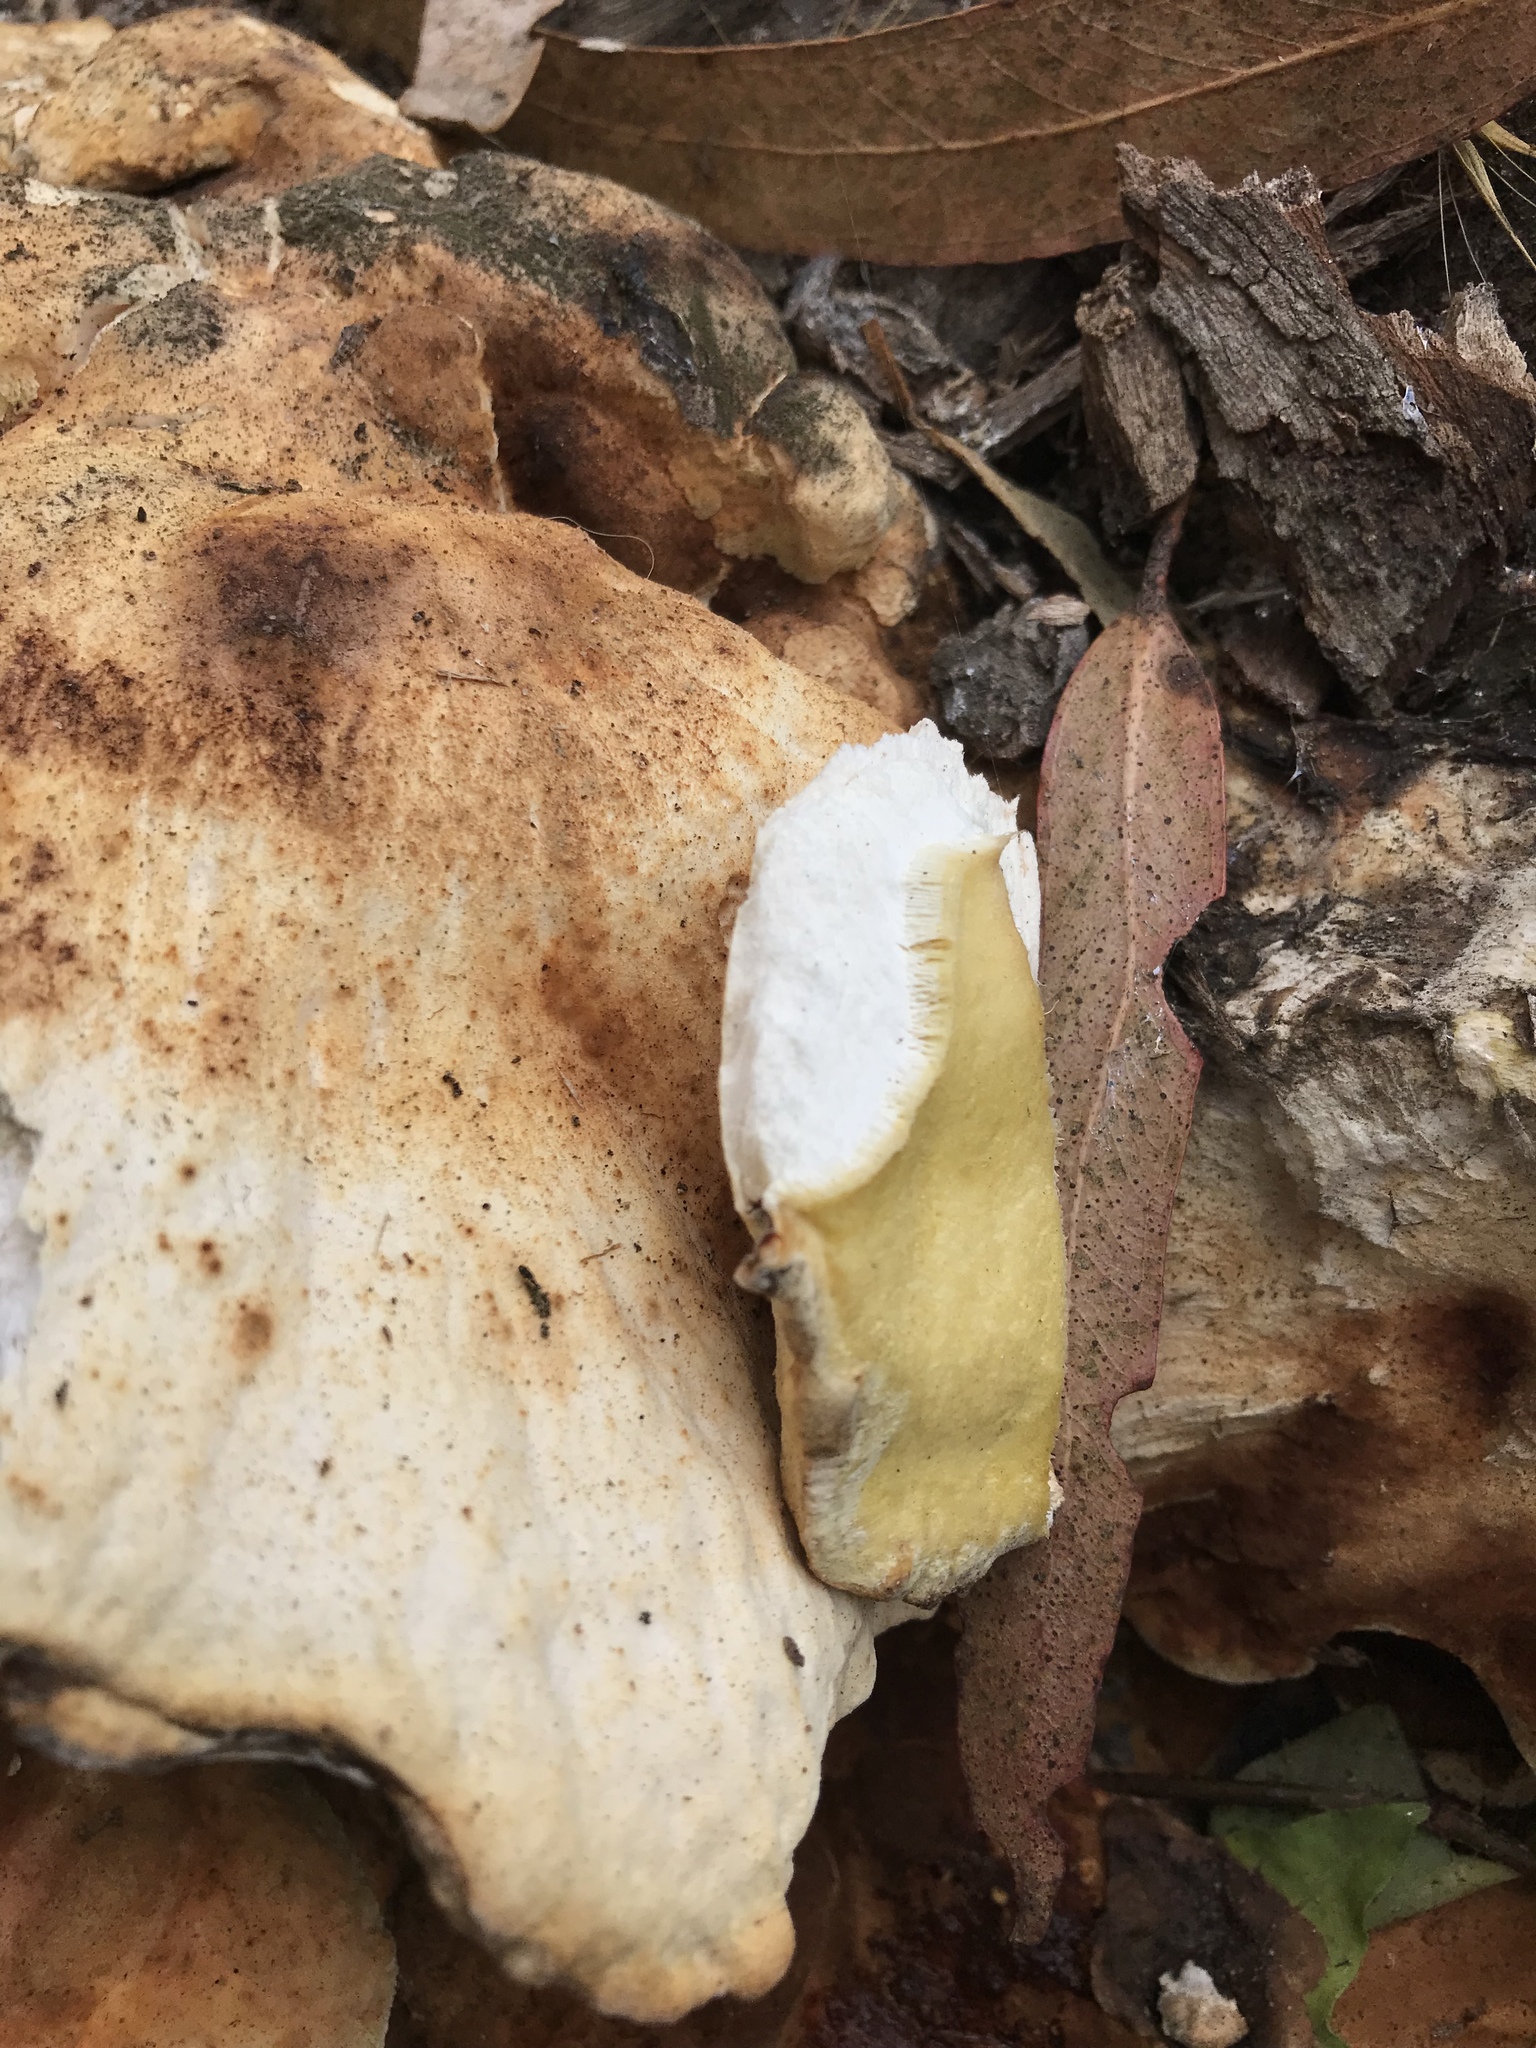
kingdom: Fungi
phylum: Basidiomycota
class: Agaricomycetes
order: Polyporales
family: Laetiporaceae
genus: Laetiporus
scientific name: Laetiporus gilbertsonii
